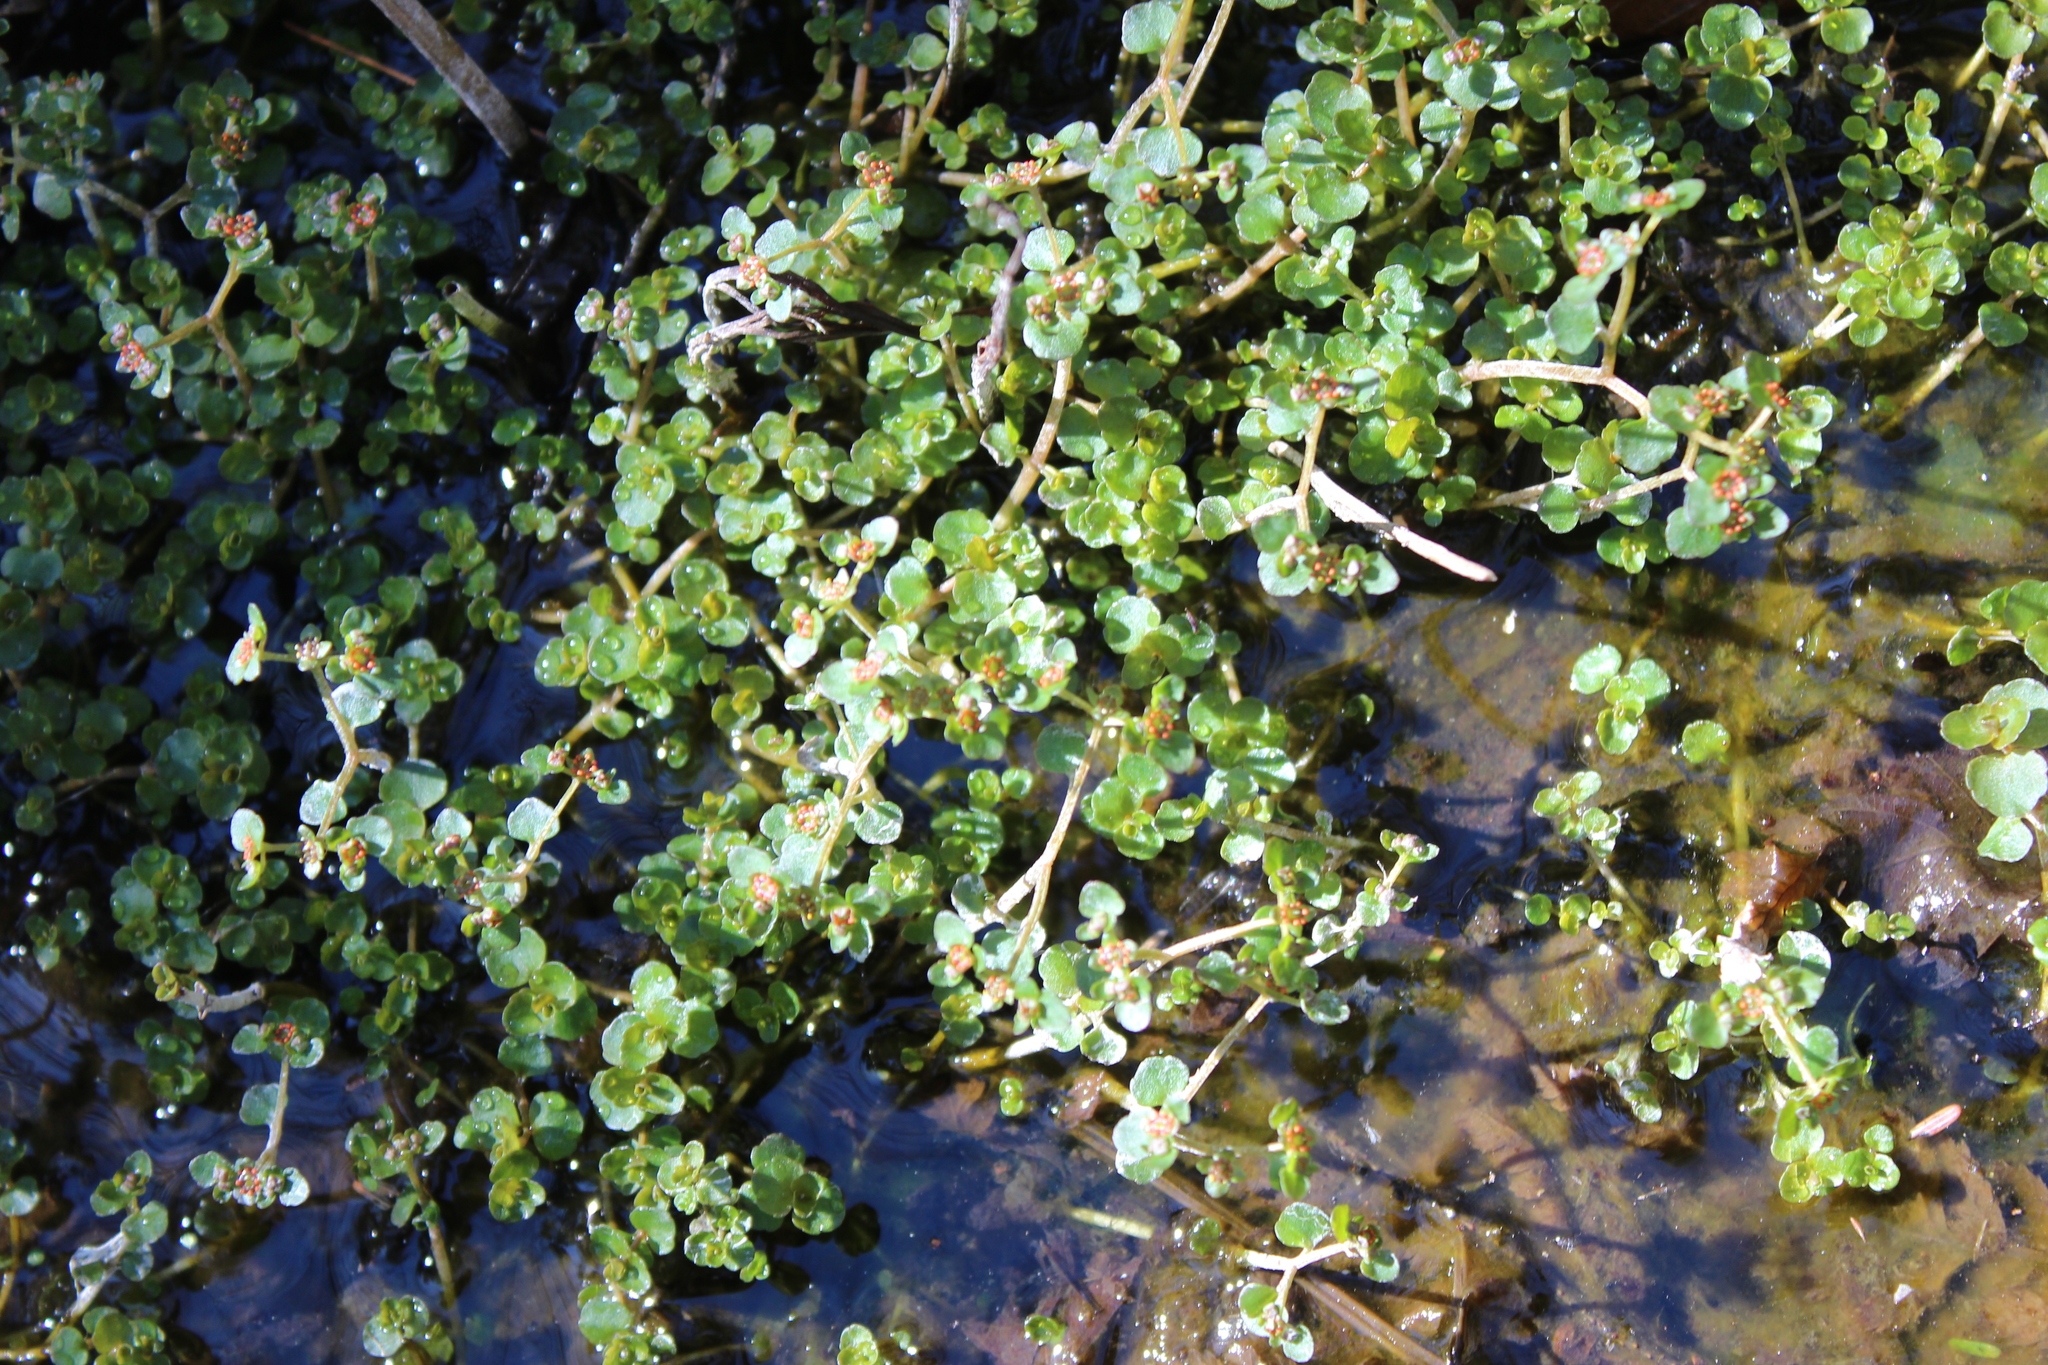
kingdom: Plantae
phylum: Tracheophyta
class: Magnoliopsida
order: Saxifragales
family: Saxifragaceae
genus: Chrysosplenium
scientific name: Chrysosplenium americanum
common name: American golden-saxifrage
